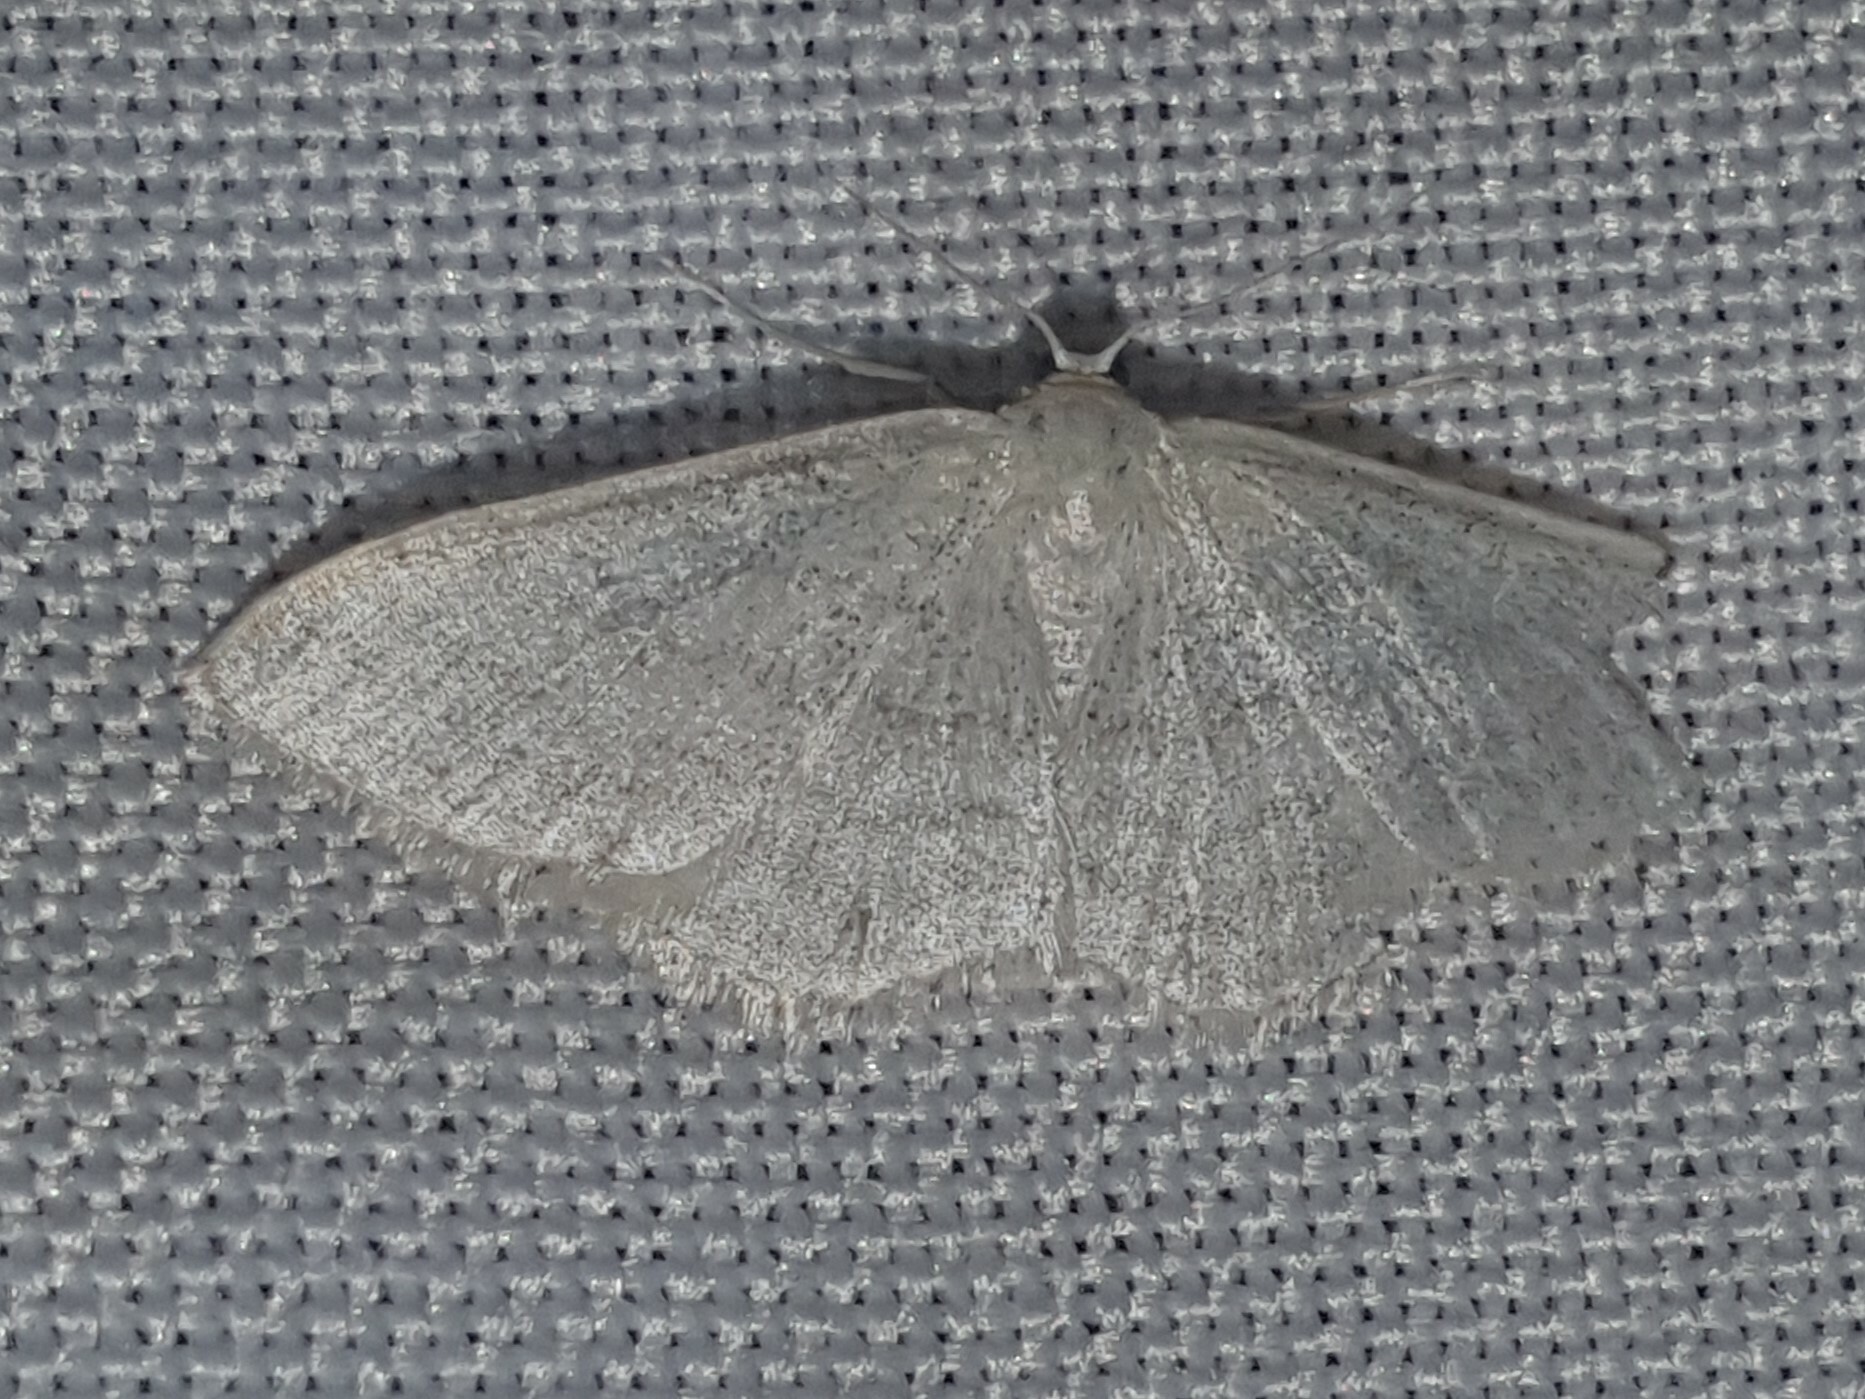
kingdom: Animalia
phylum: Arthropoda
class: Insecta
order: Lepidoptera
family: Geometridae
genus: Idaea
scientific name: Idaea subsericeata
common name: Satin wave
